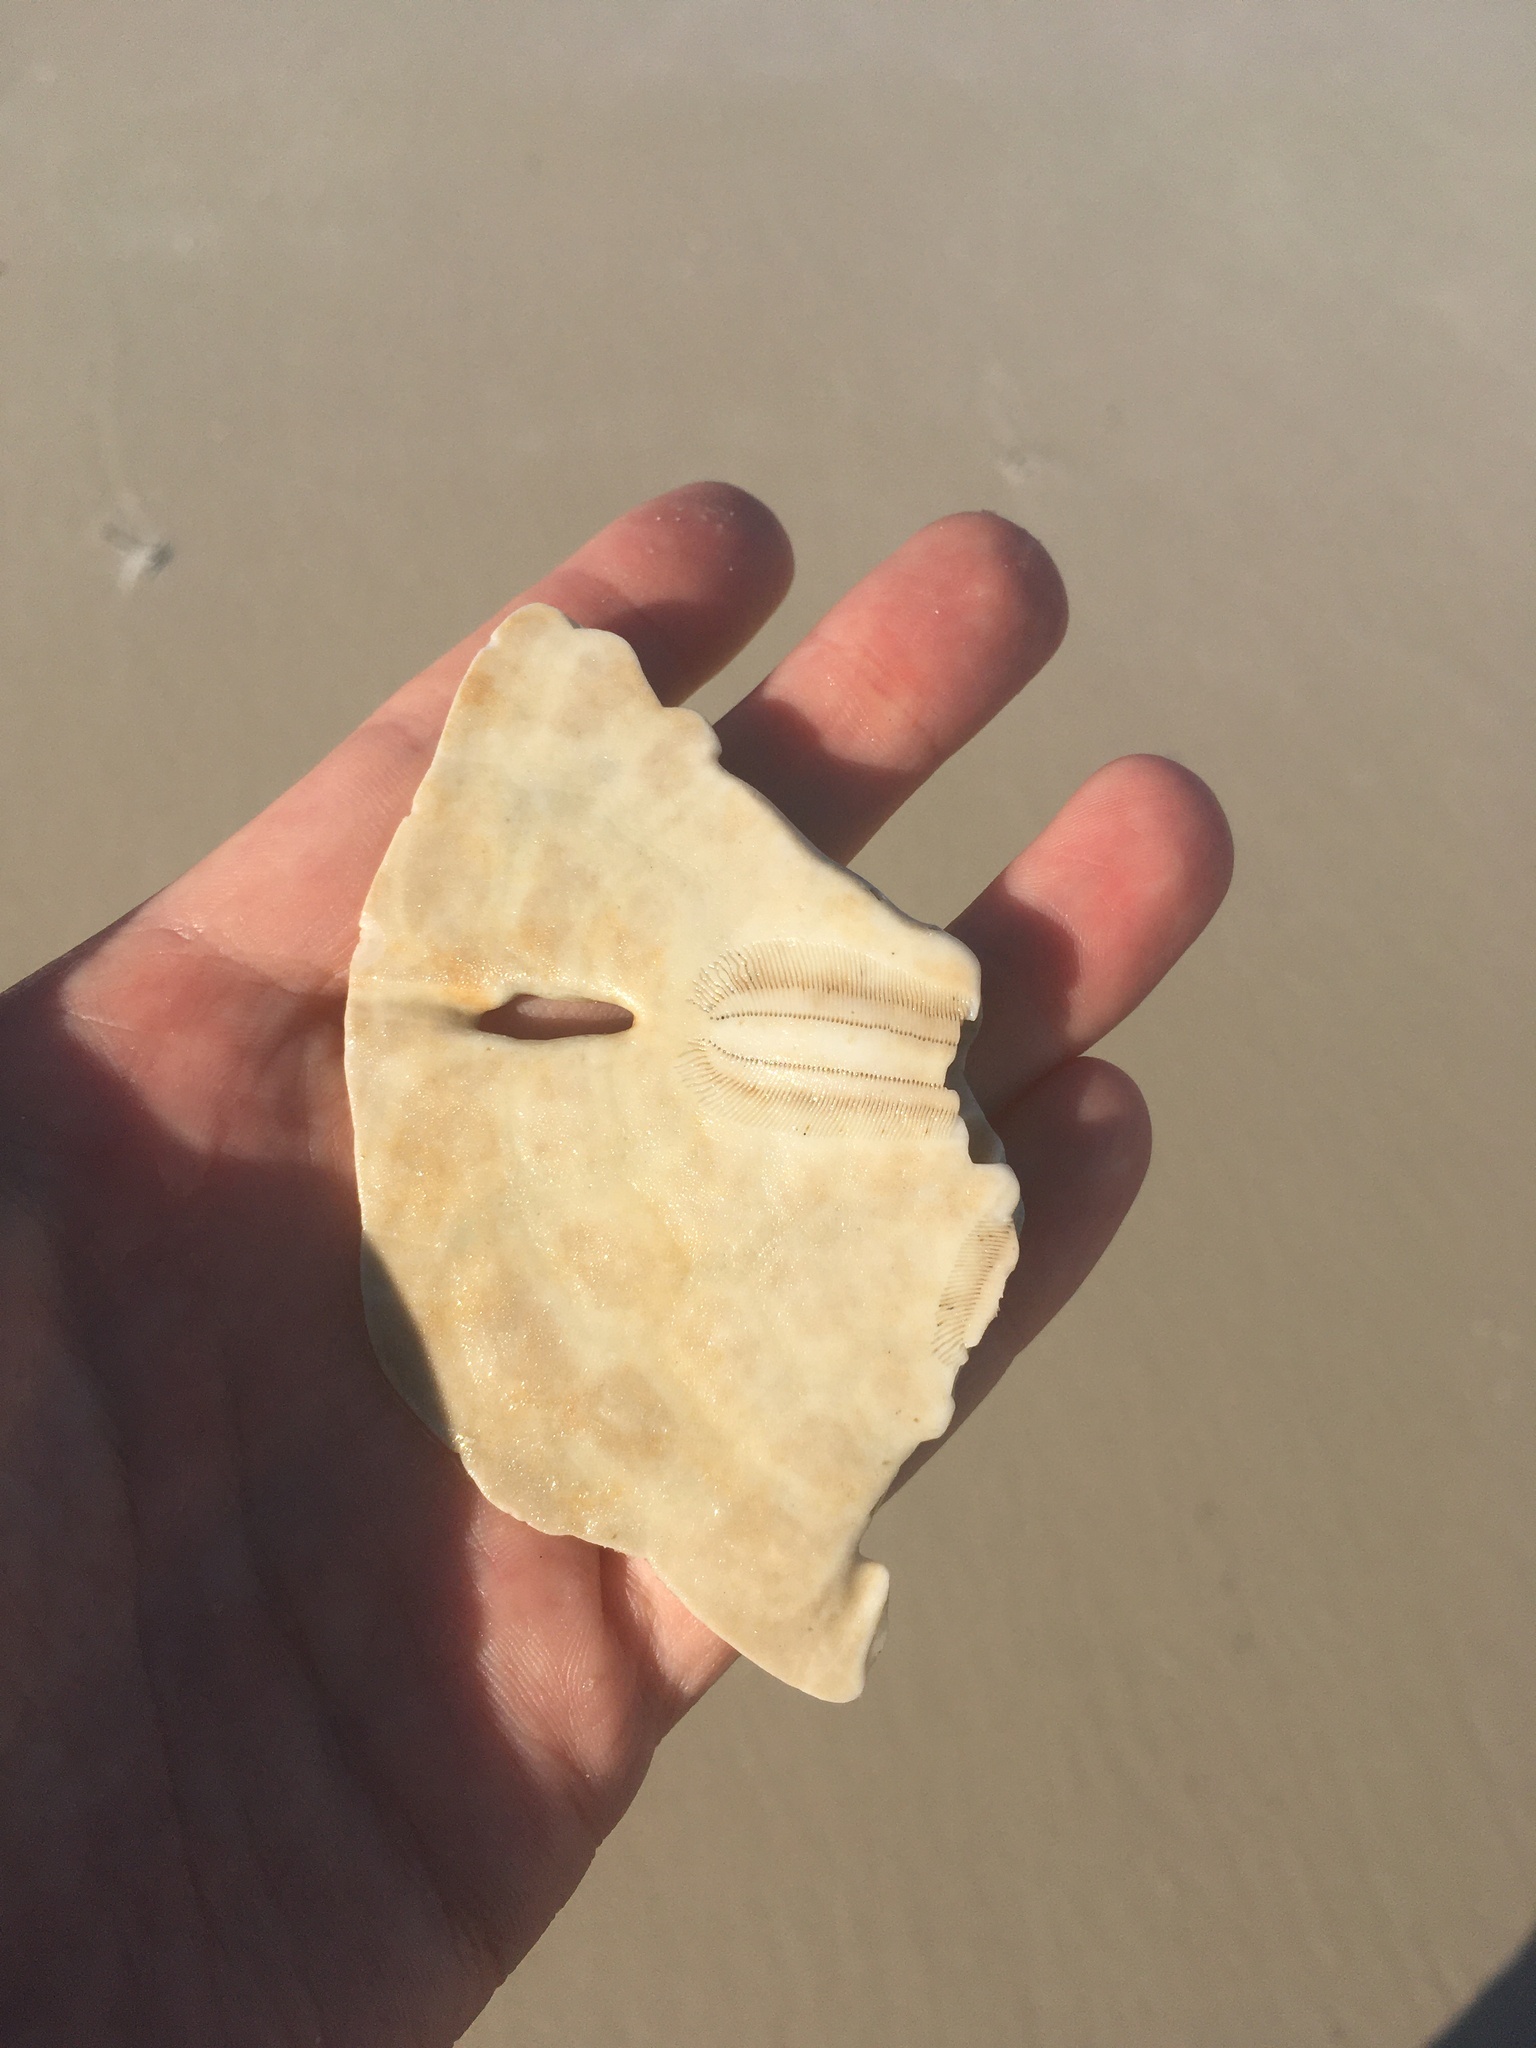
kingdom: Animalia
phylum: Echinodermata
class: Echinoidea
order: Echinolampadacea
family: Mellitidae
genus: Mellita
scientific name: Mellita tenuis
